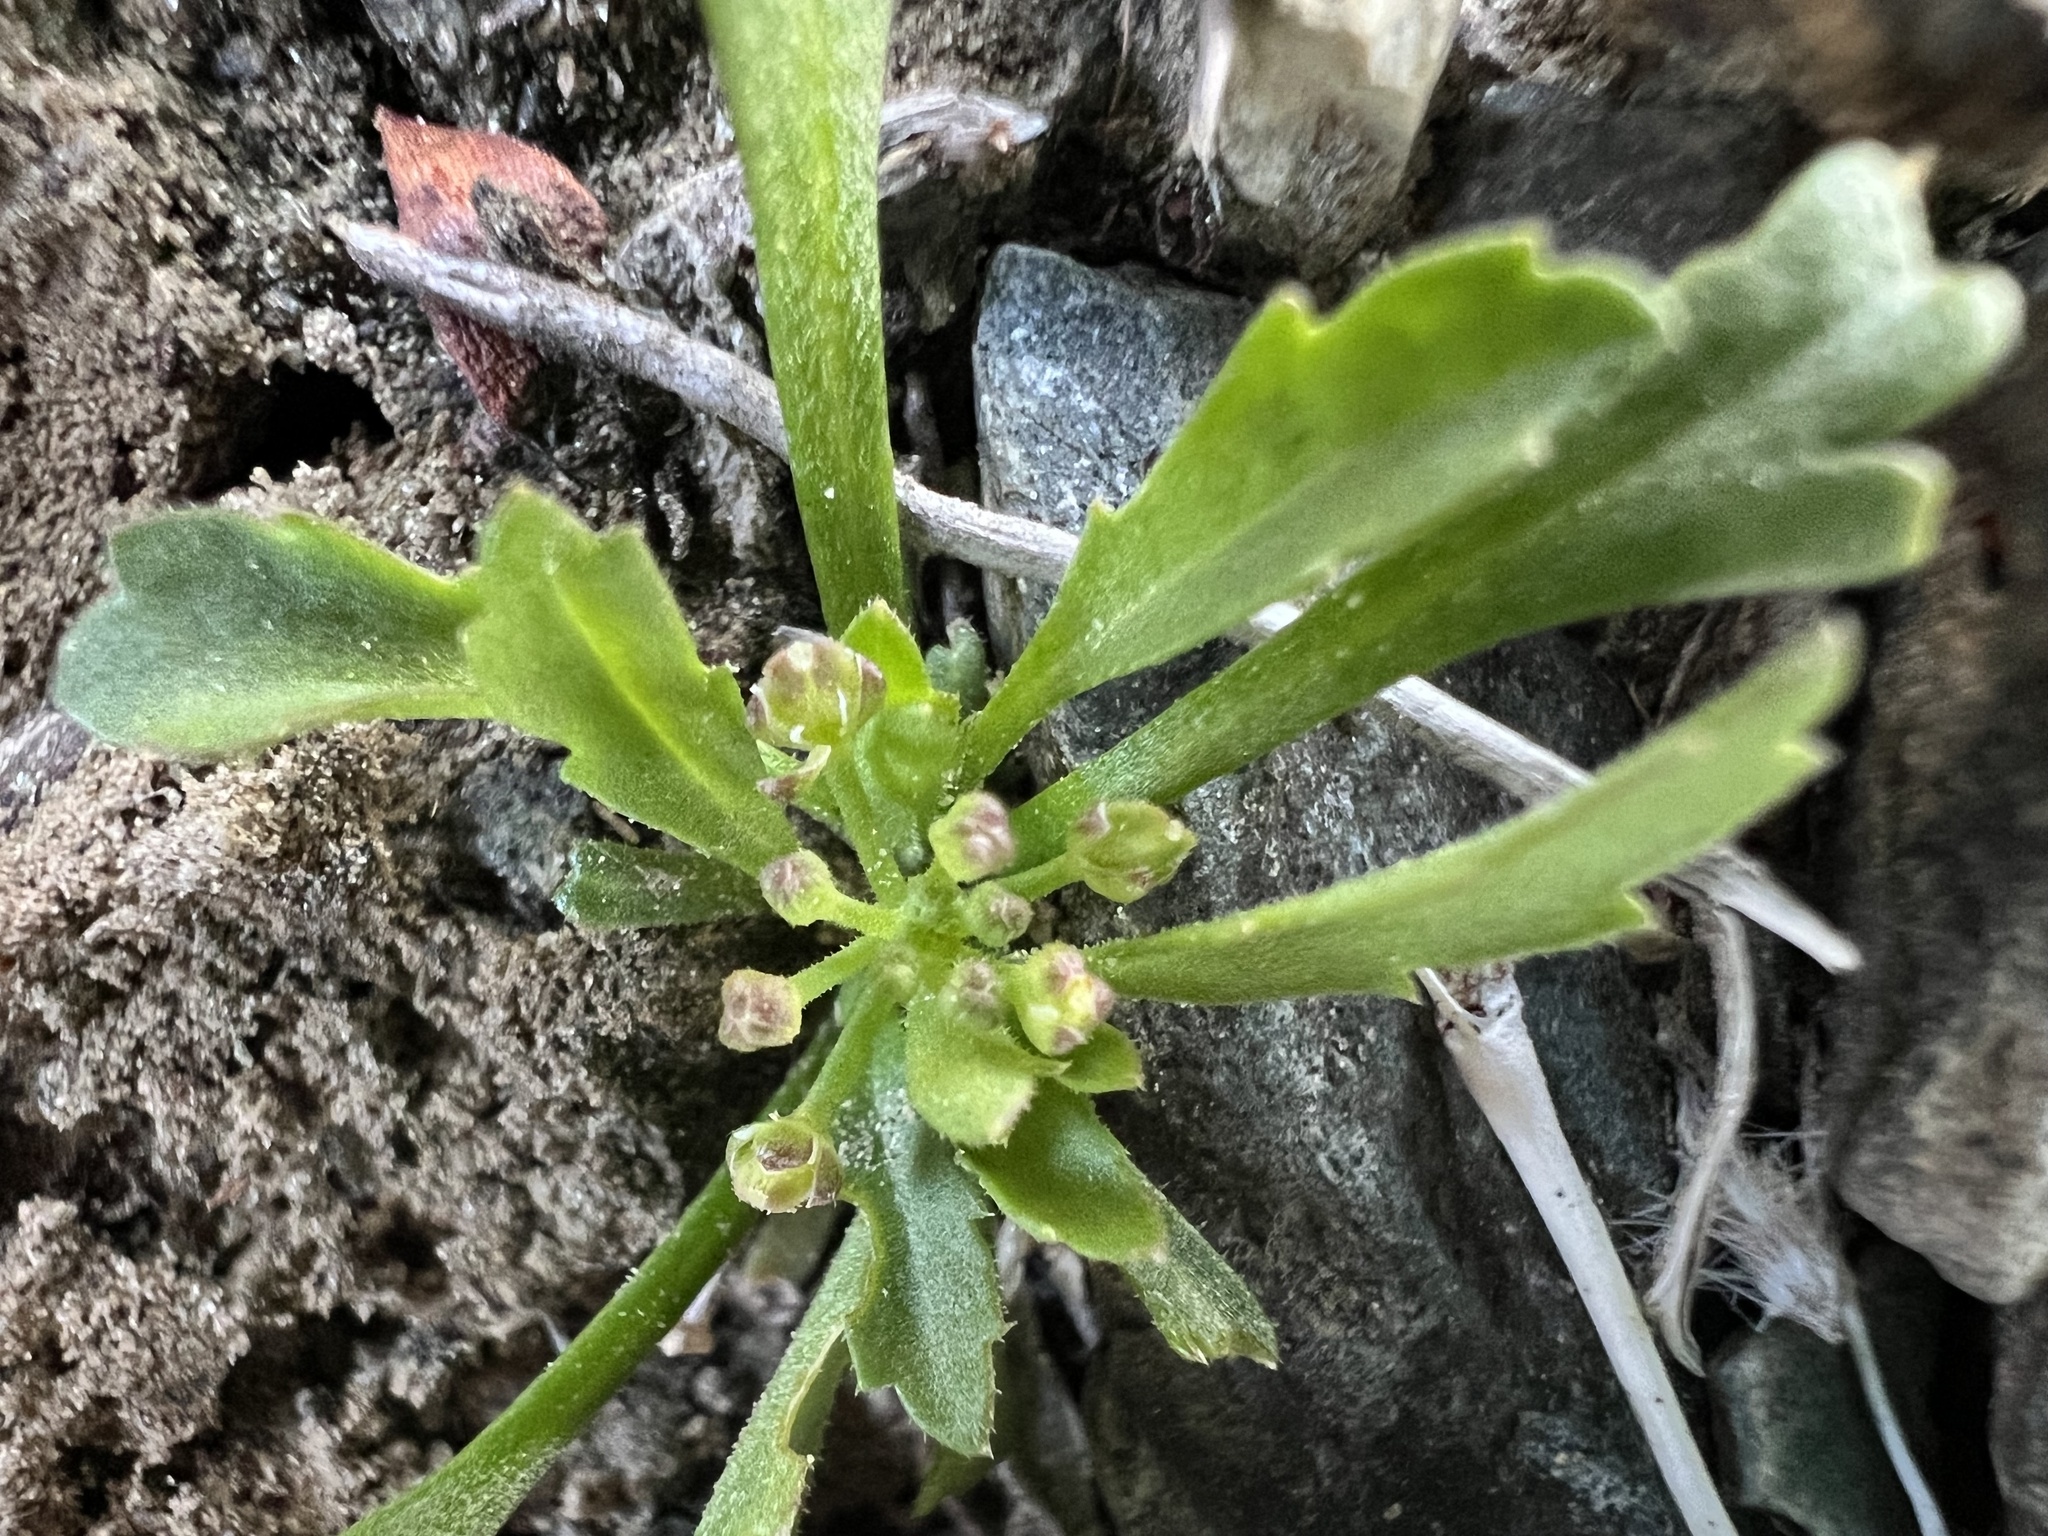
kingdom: Plantae
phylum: Tracheophyta
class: Magnoliopsida
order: Brassicales
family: Brassicaceae
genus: Lepidium
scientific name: Lepidium lasiocarpum
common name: Hairy-pod pepperwort
